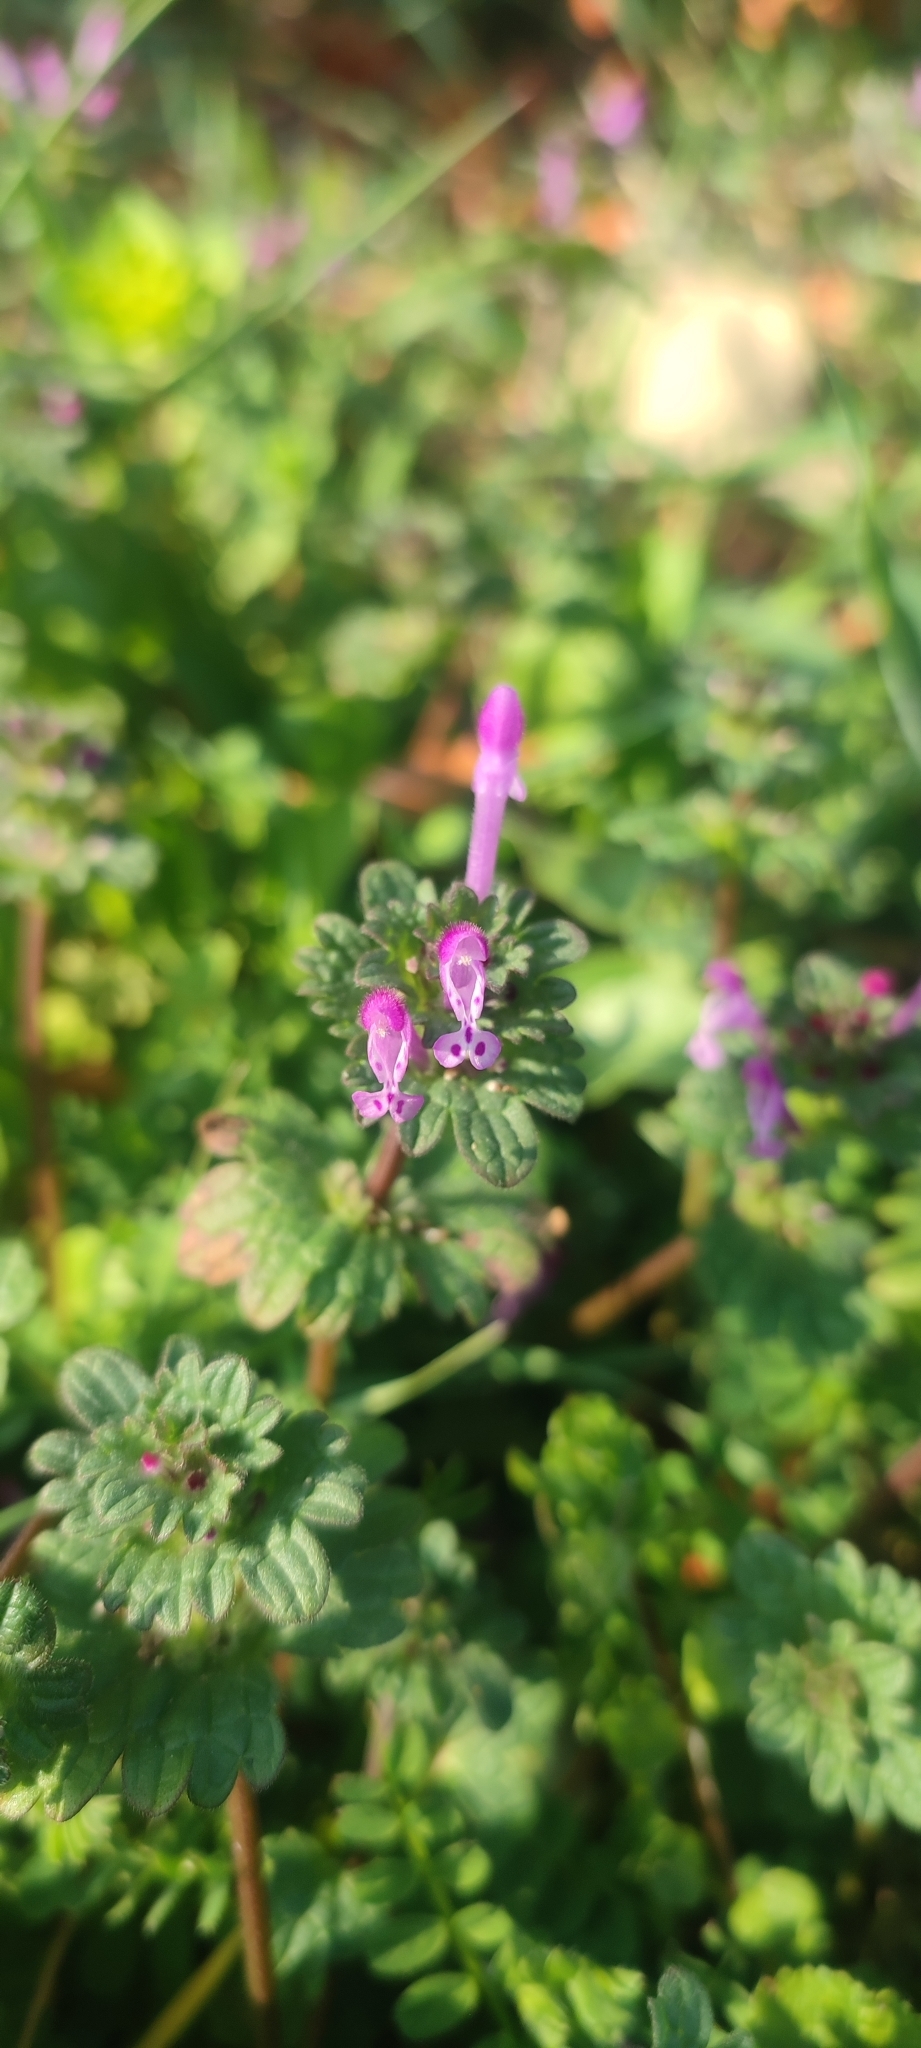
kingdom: Plantae
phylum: Tracheophyta
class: Magnoliopsida
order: Lamiales
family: Lamiaceae
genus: Lamium
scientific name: Lamium amplexicaule
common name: Henbit dead-nettle
